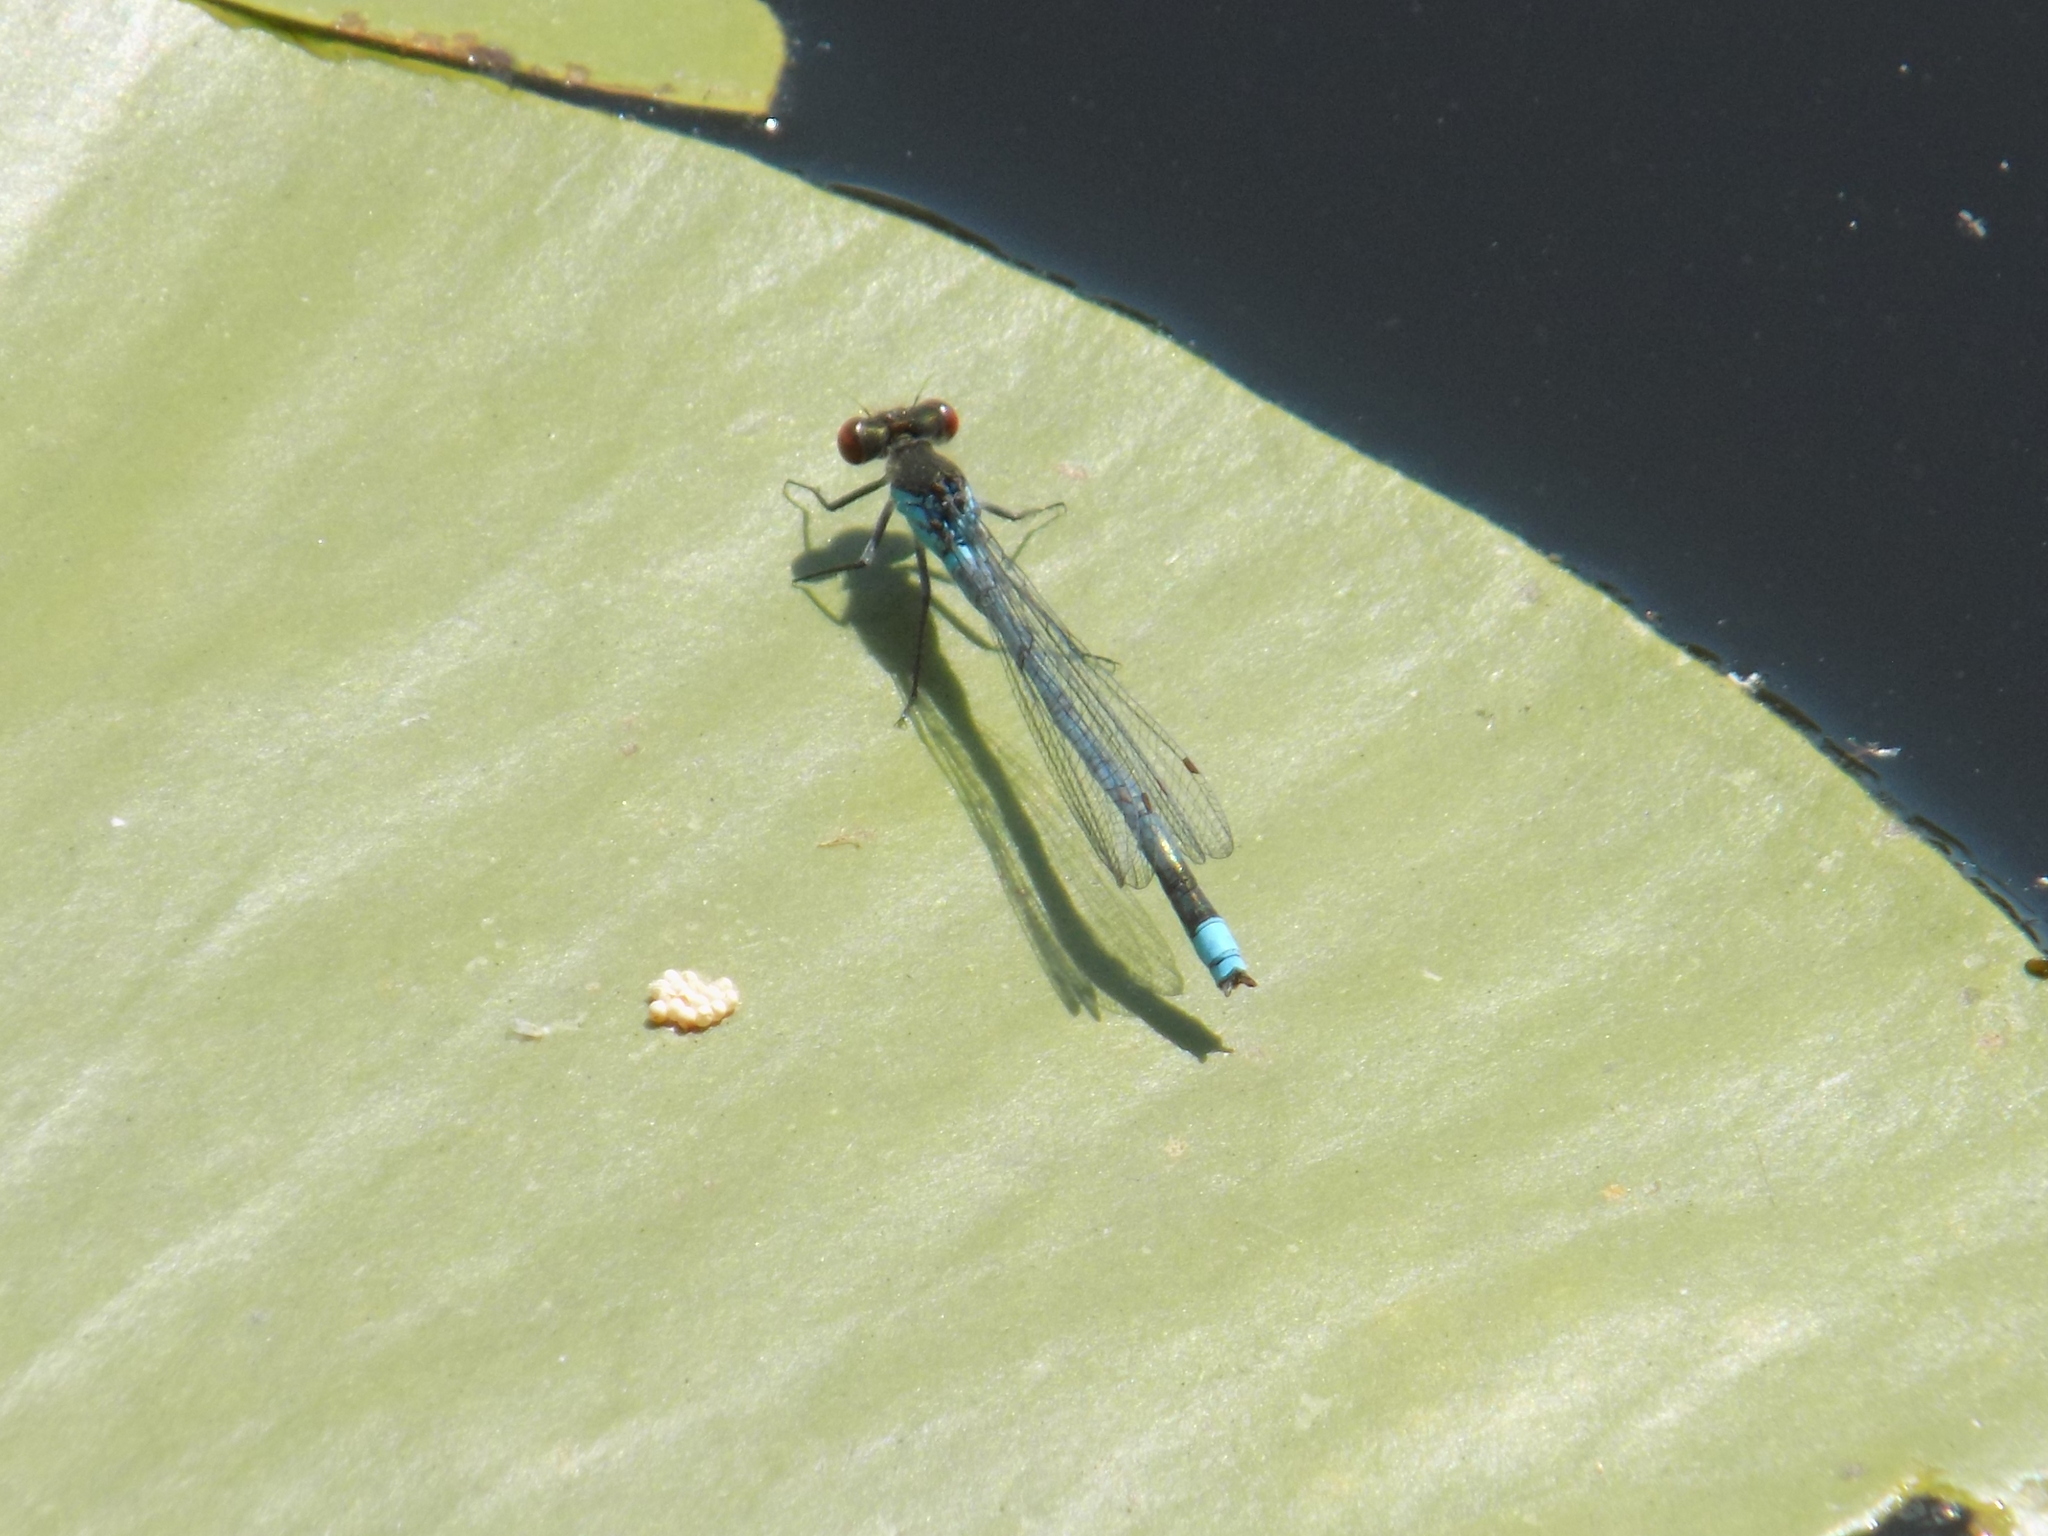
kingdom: Animalia
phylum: Arthropoda
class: Insecta
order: Odonata
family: Coenagrionidae
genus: Erythromma
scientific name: Erythromma najas
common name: Red-eyed damselfly
